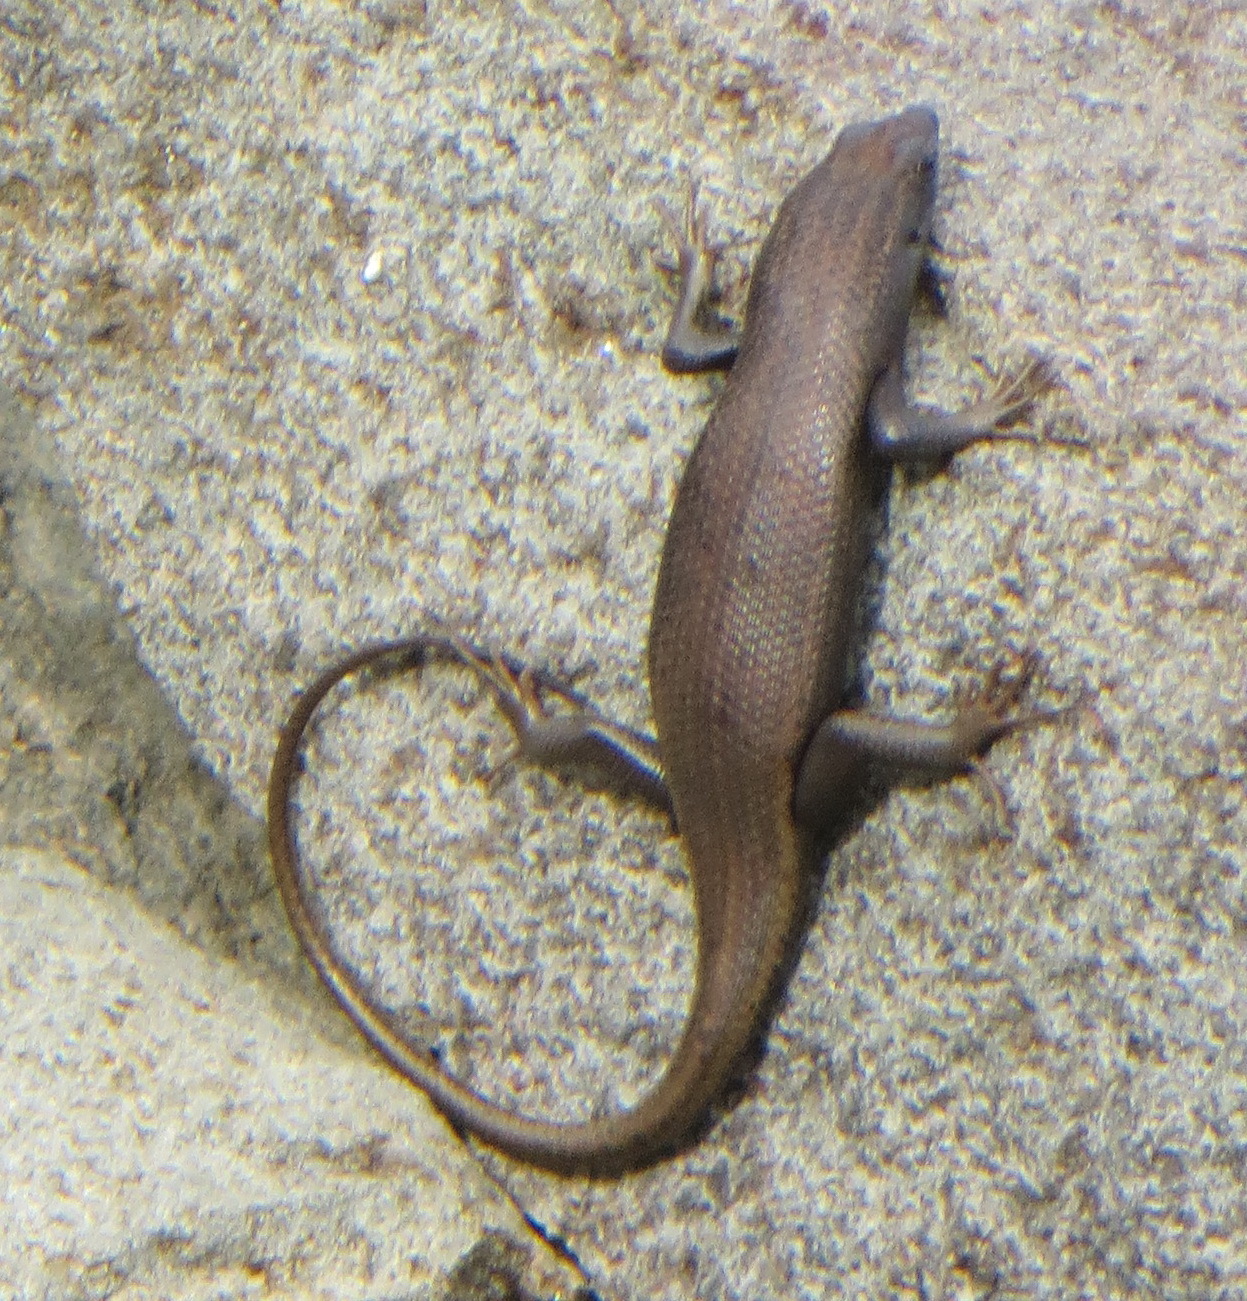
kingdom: Animalia
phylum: Chordata
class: Squamata
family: Scincidae
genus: Trachylepis
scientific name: Trachylepis sulcata
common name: Western rock skink
